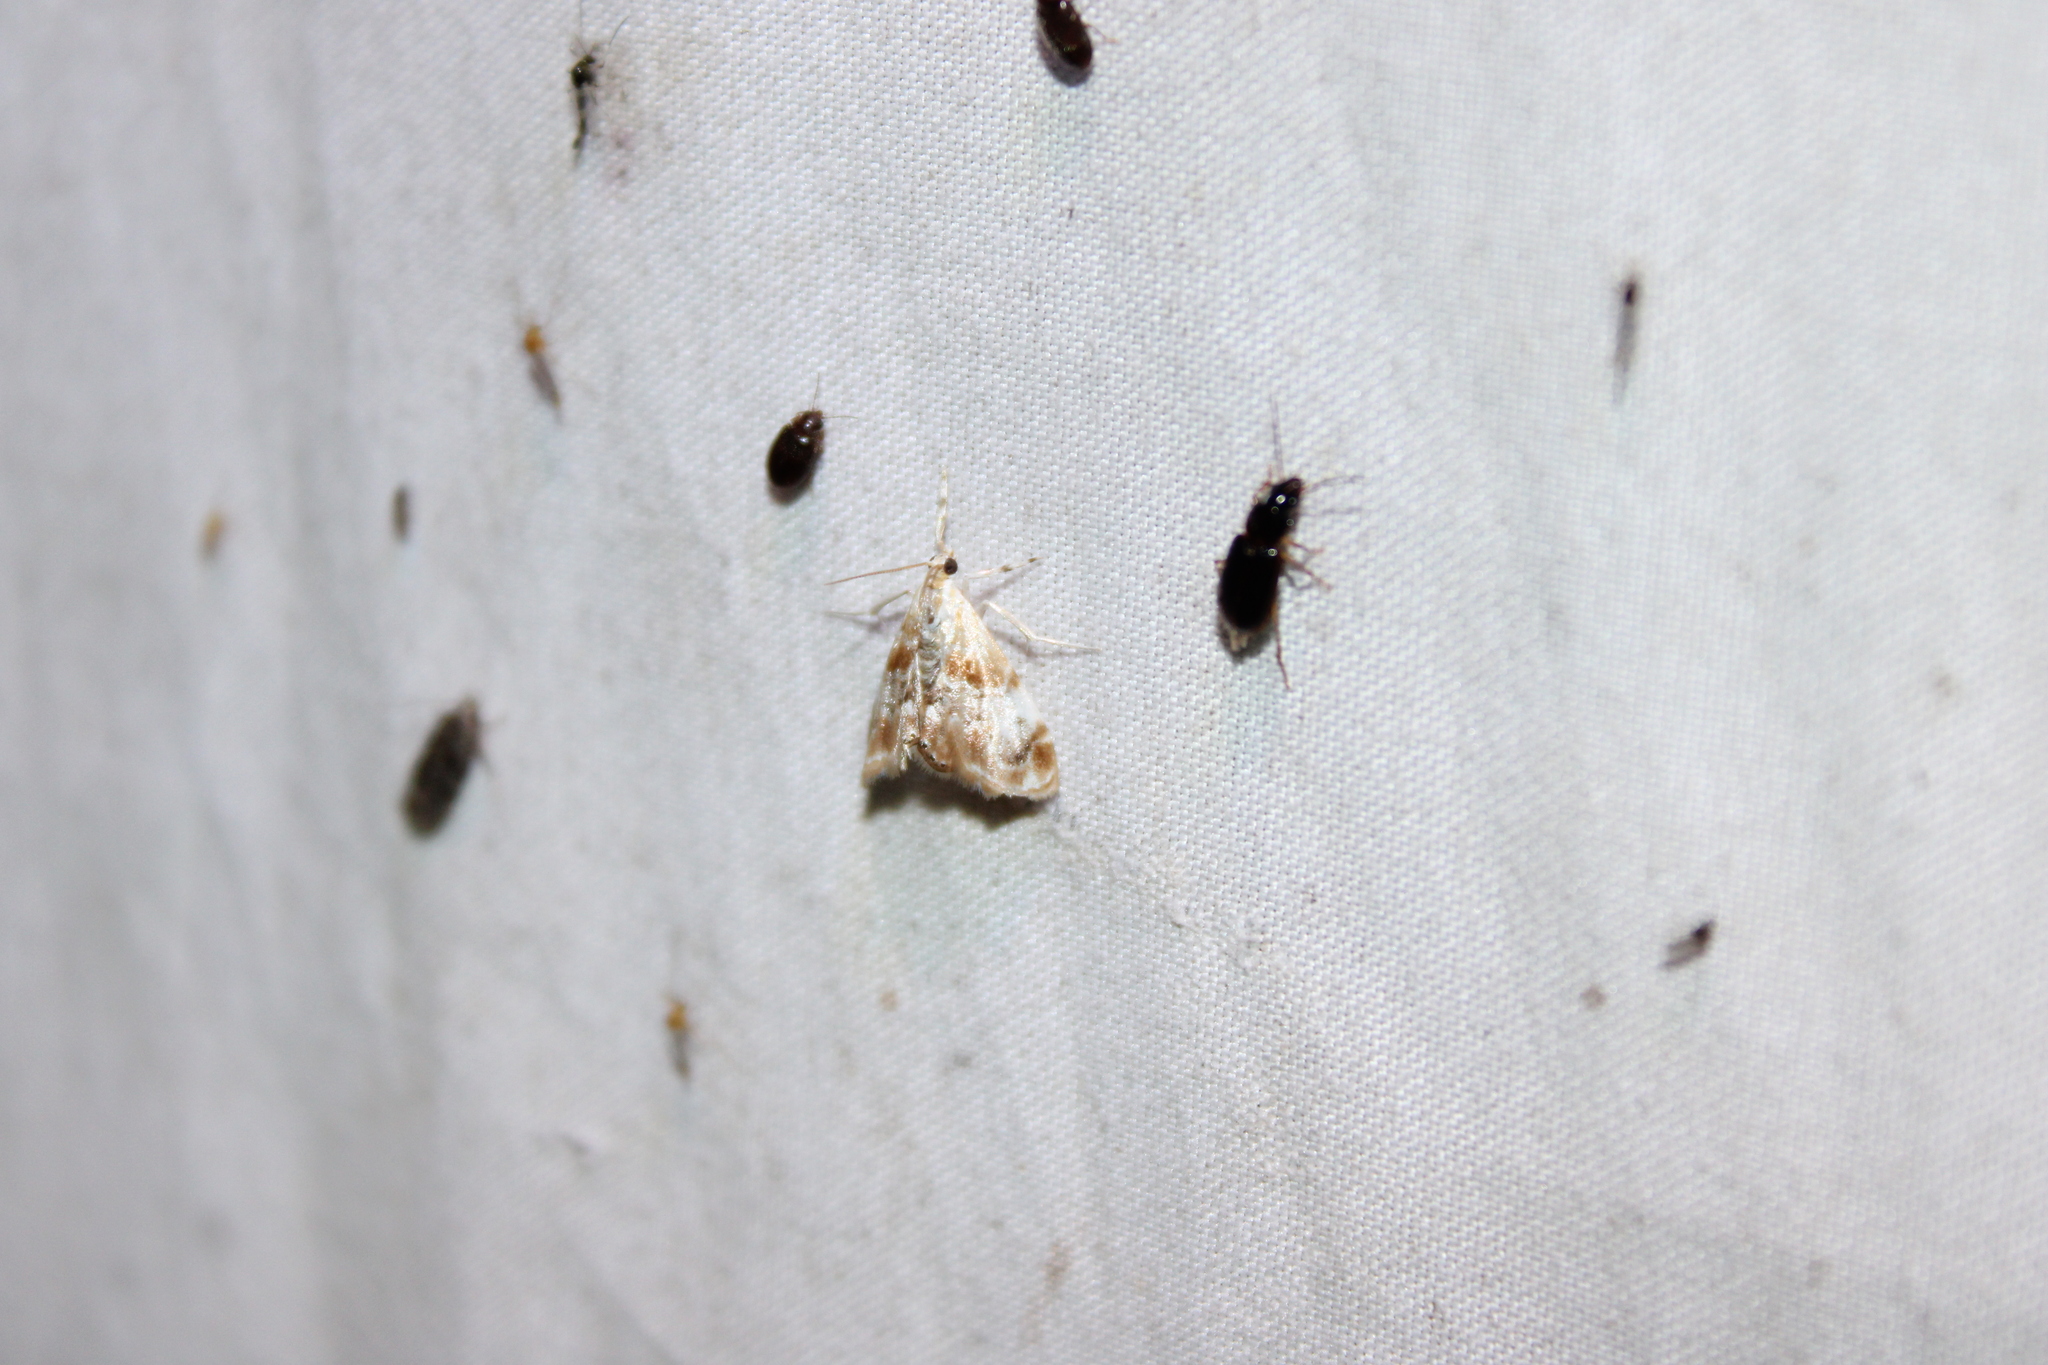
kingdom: Animalia
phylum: Arthropoda
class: Insecta
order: Lepidoptera
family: Crambidae
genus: Dicymolomia
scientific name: Dicymolomia julianalis
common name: Julia's dicymolomia moth
